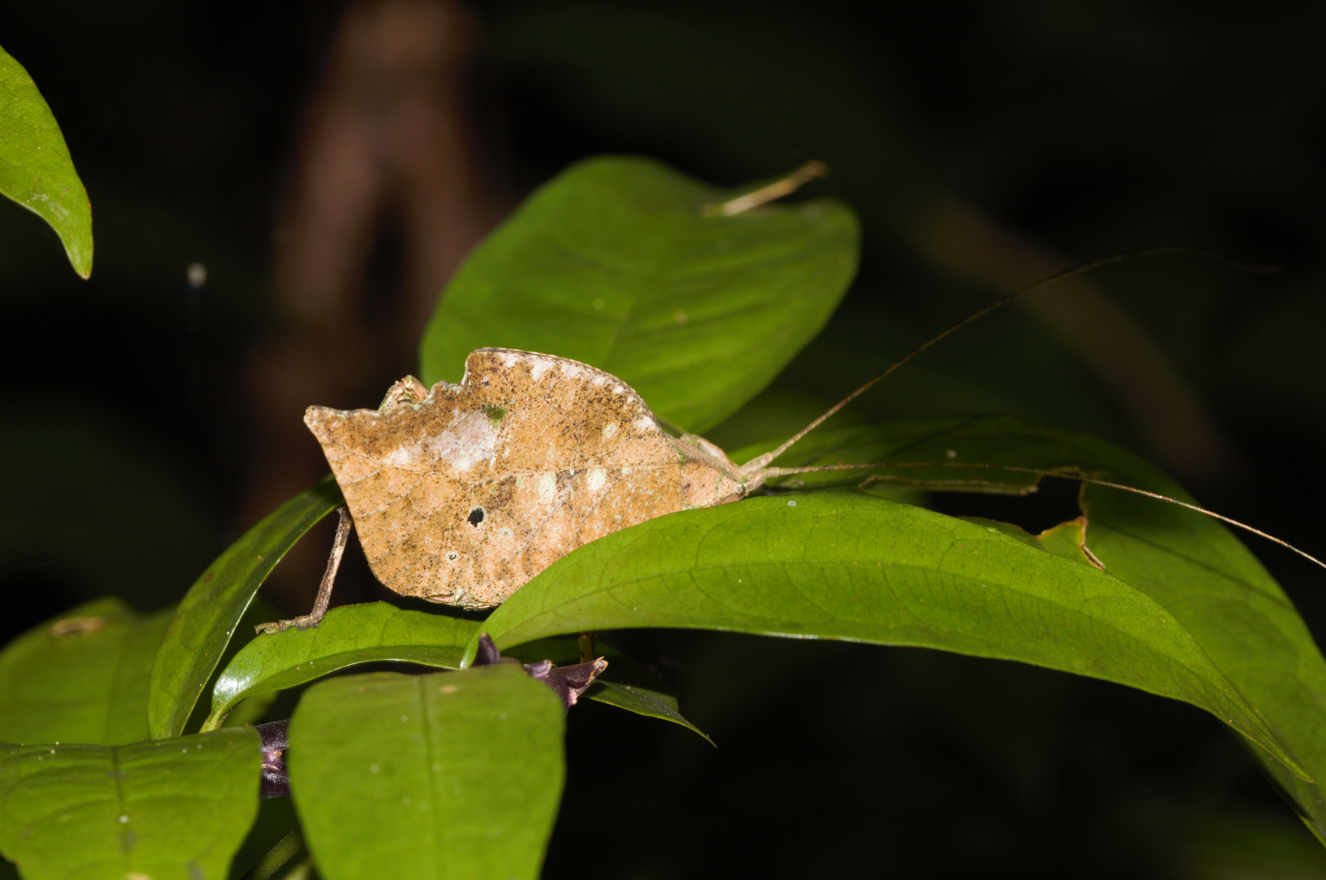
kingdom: Animalia
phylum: Arthropoda
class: Insecta
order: Orthoptera
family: Tettigoniidae
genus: Typophyllum
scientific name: Typophyllum trapeziforme
